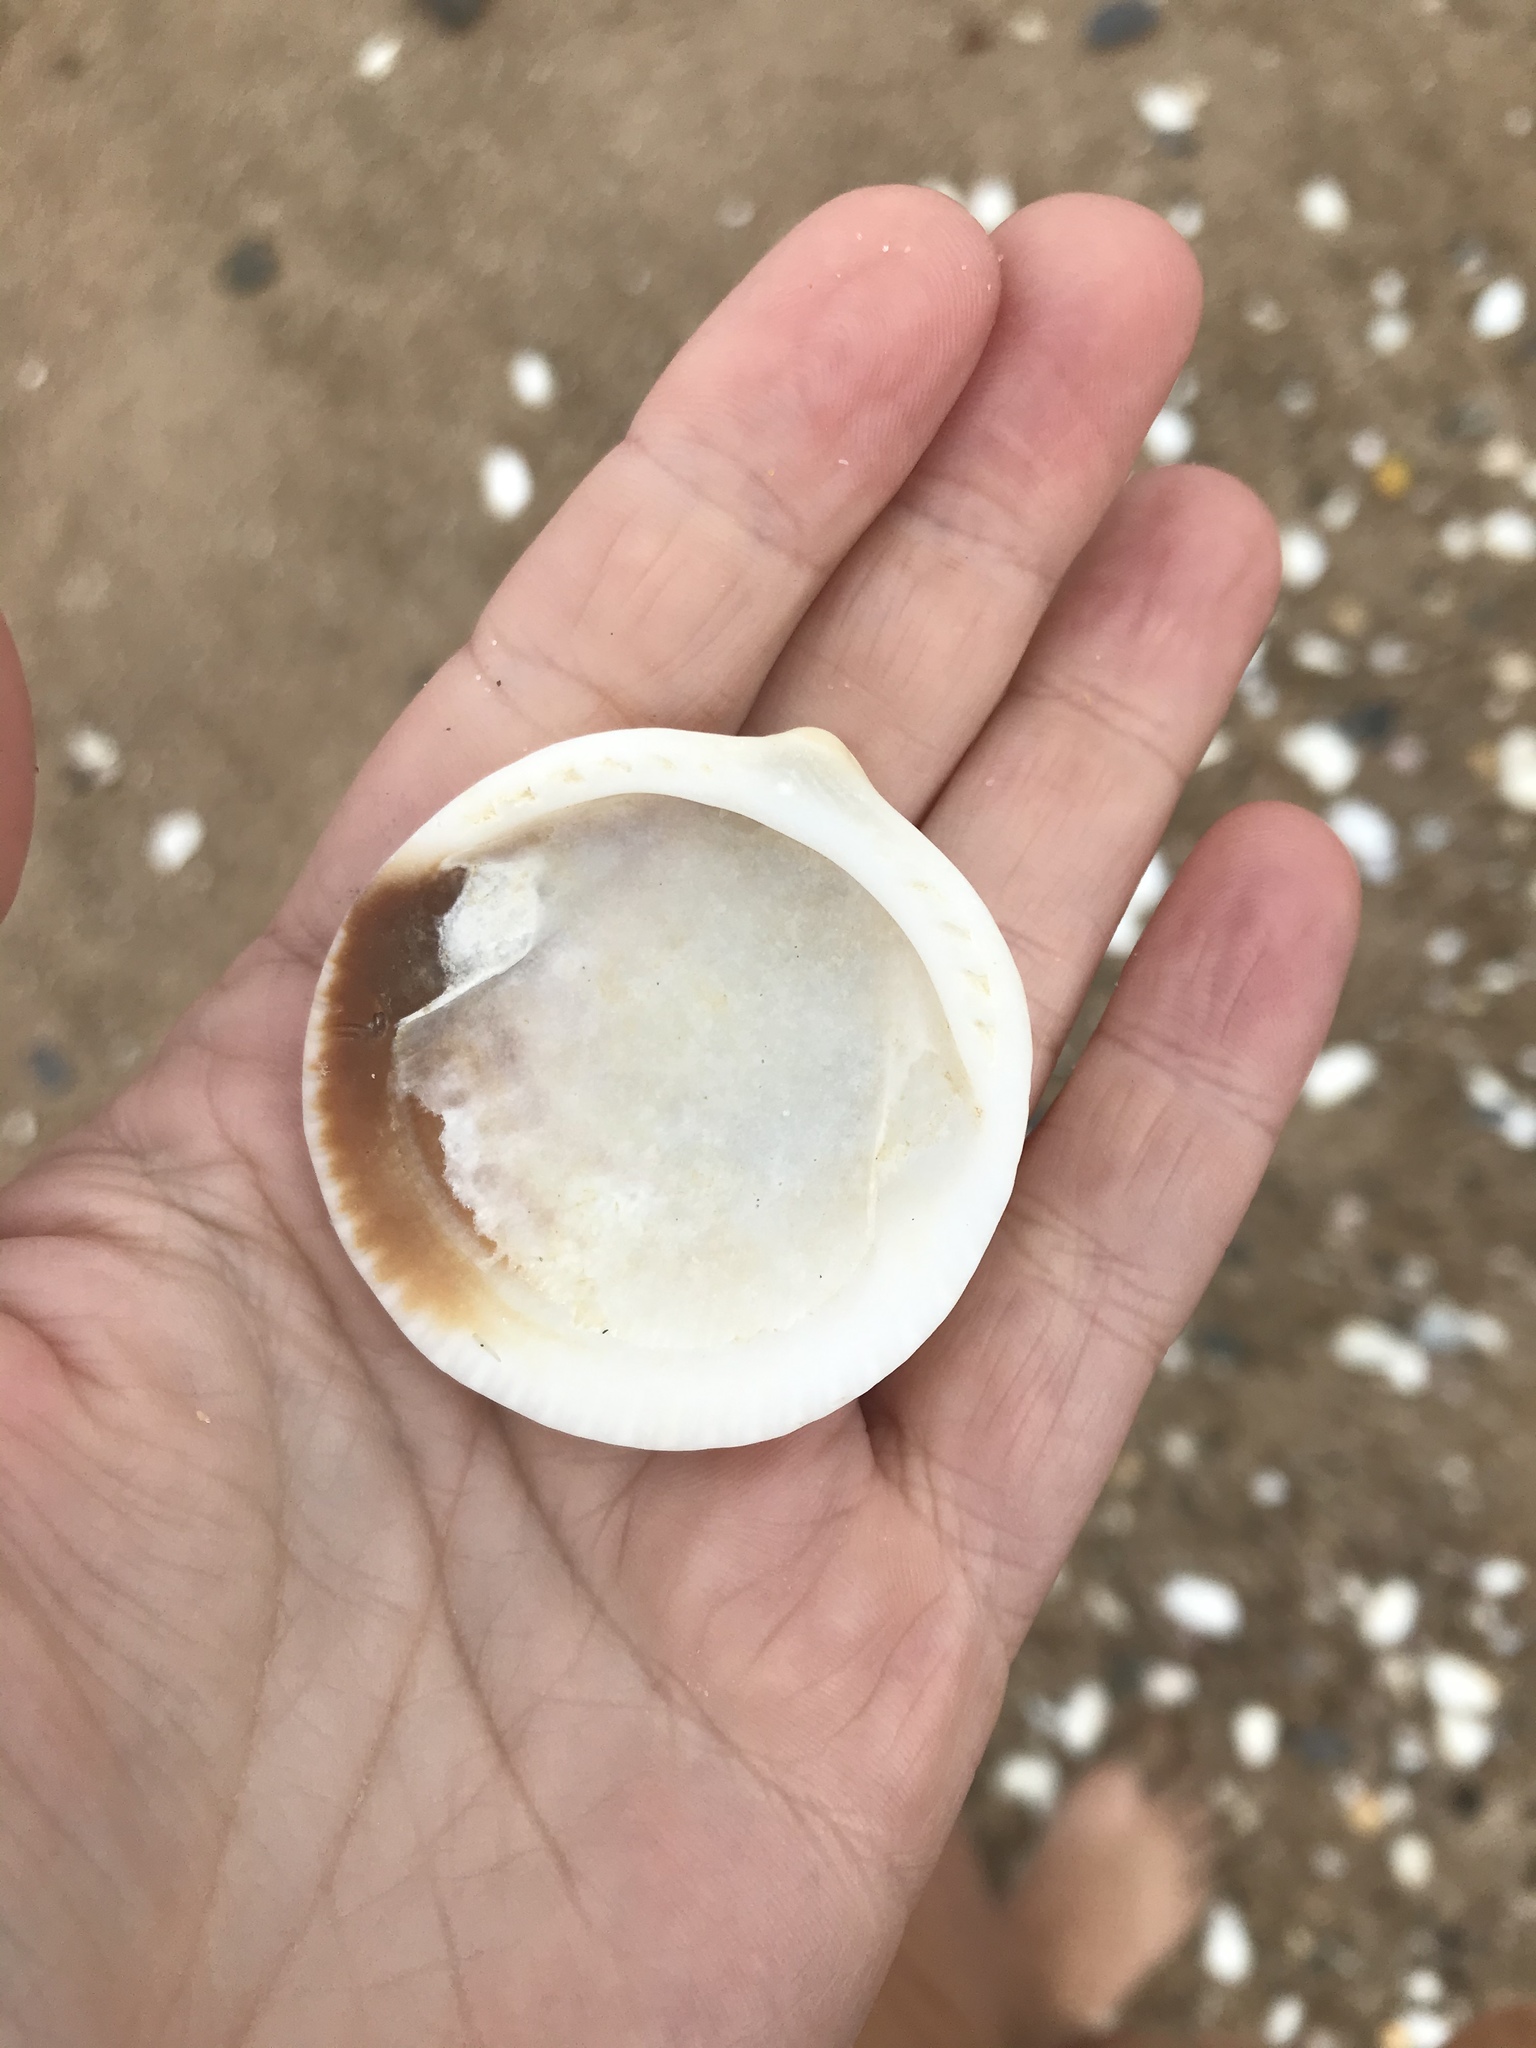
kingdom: Animalia
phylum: Mollusca
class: Bivalvia
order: Arcida
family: Glycymerididae
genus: Tucetona
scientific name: Tucetona laticostata
